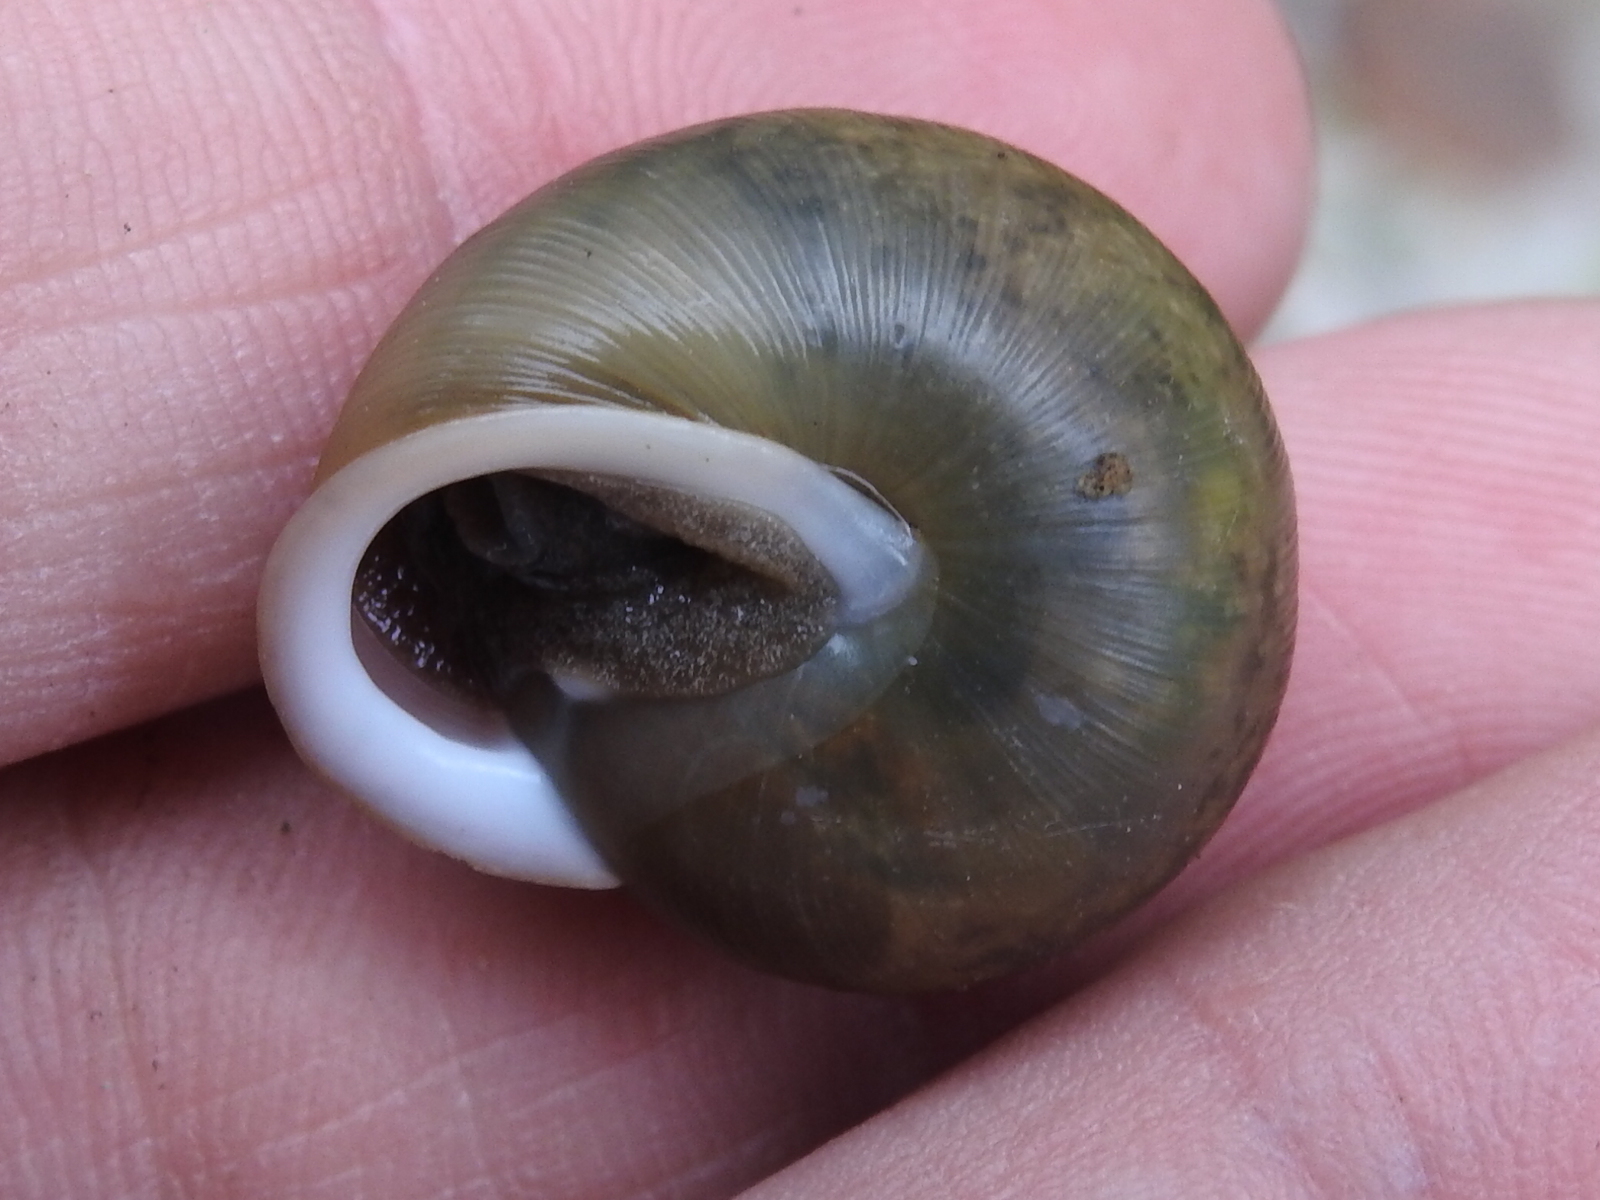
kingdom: Animalia
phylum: Mollusca
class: Gastropoda
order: Stylommatophora
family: Polygyridae
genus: Mesodon
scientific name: Mesodon thyroidus
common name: White-lip globe
